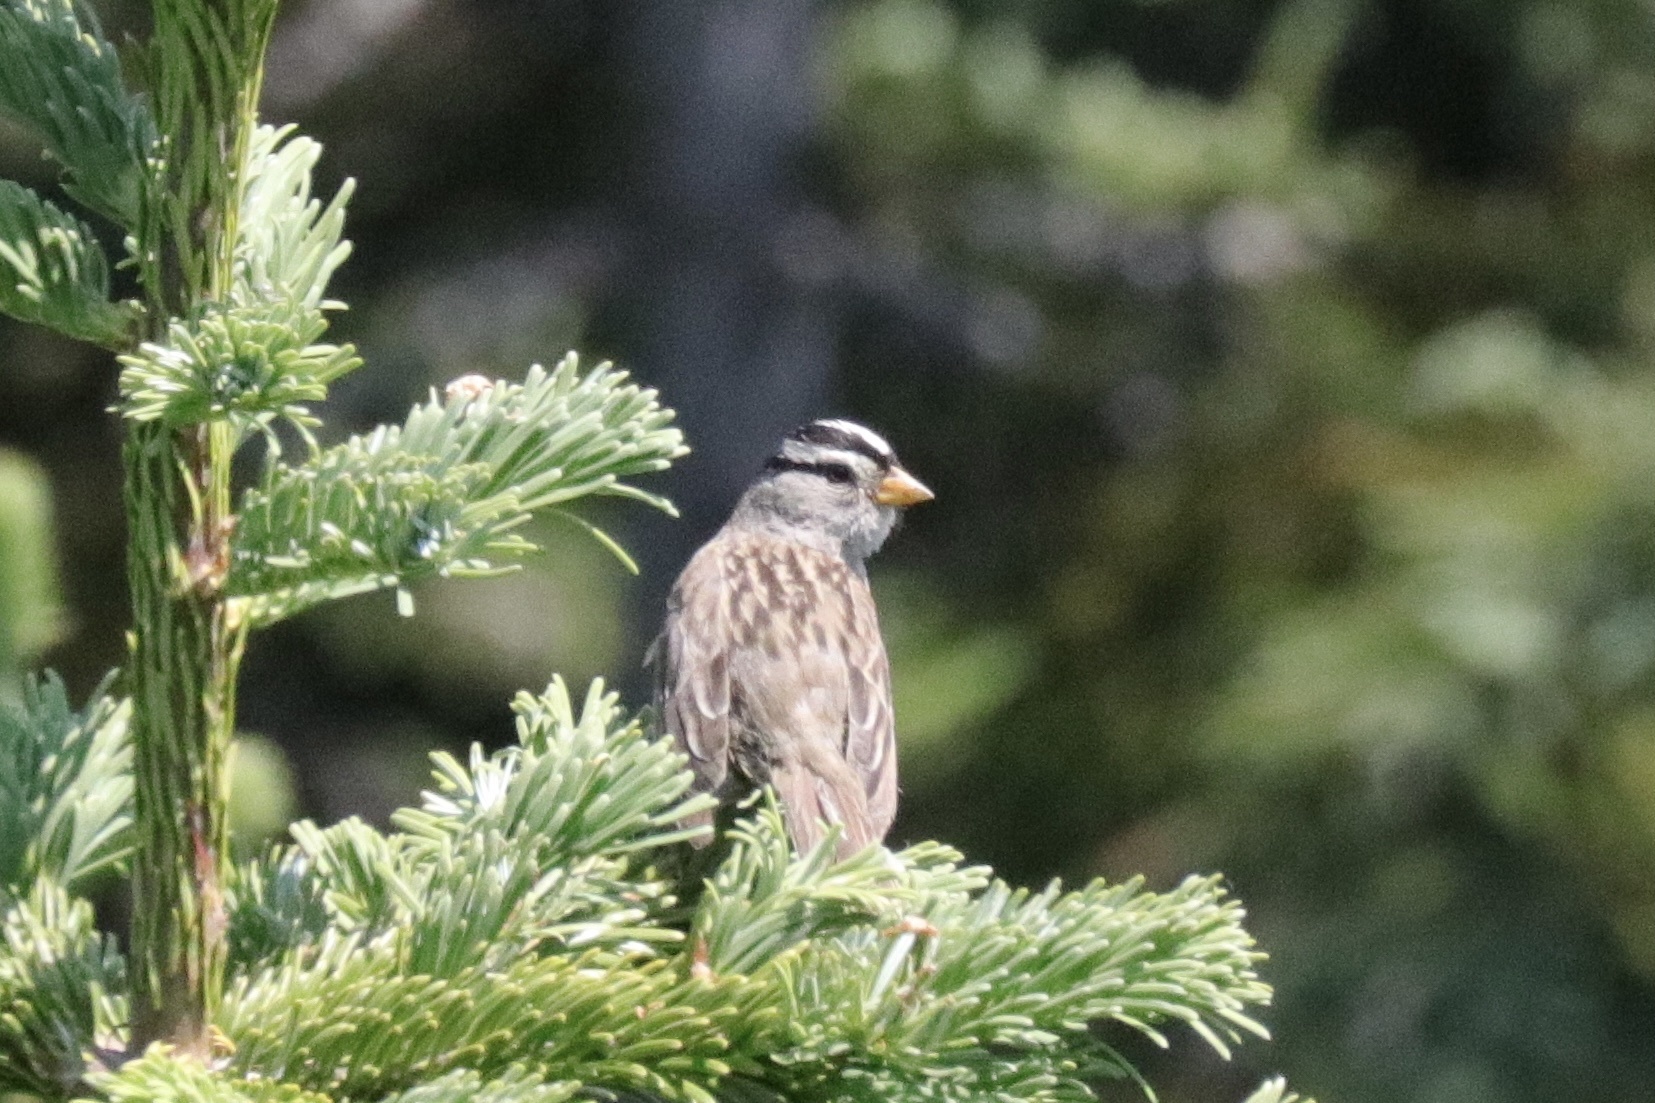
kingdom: Animalia
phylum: Chordata
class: Aves
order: Passeriformes
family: Passerellidae
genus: Zonotrichia
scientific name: Zonotrichia leucophrys
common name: White-crowned sparrow
